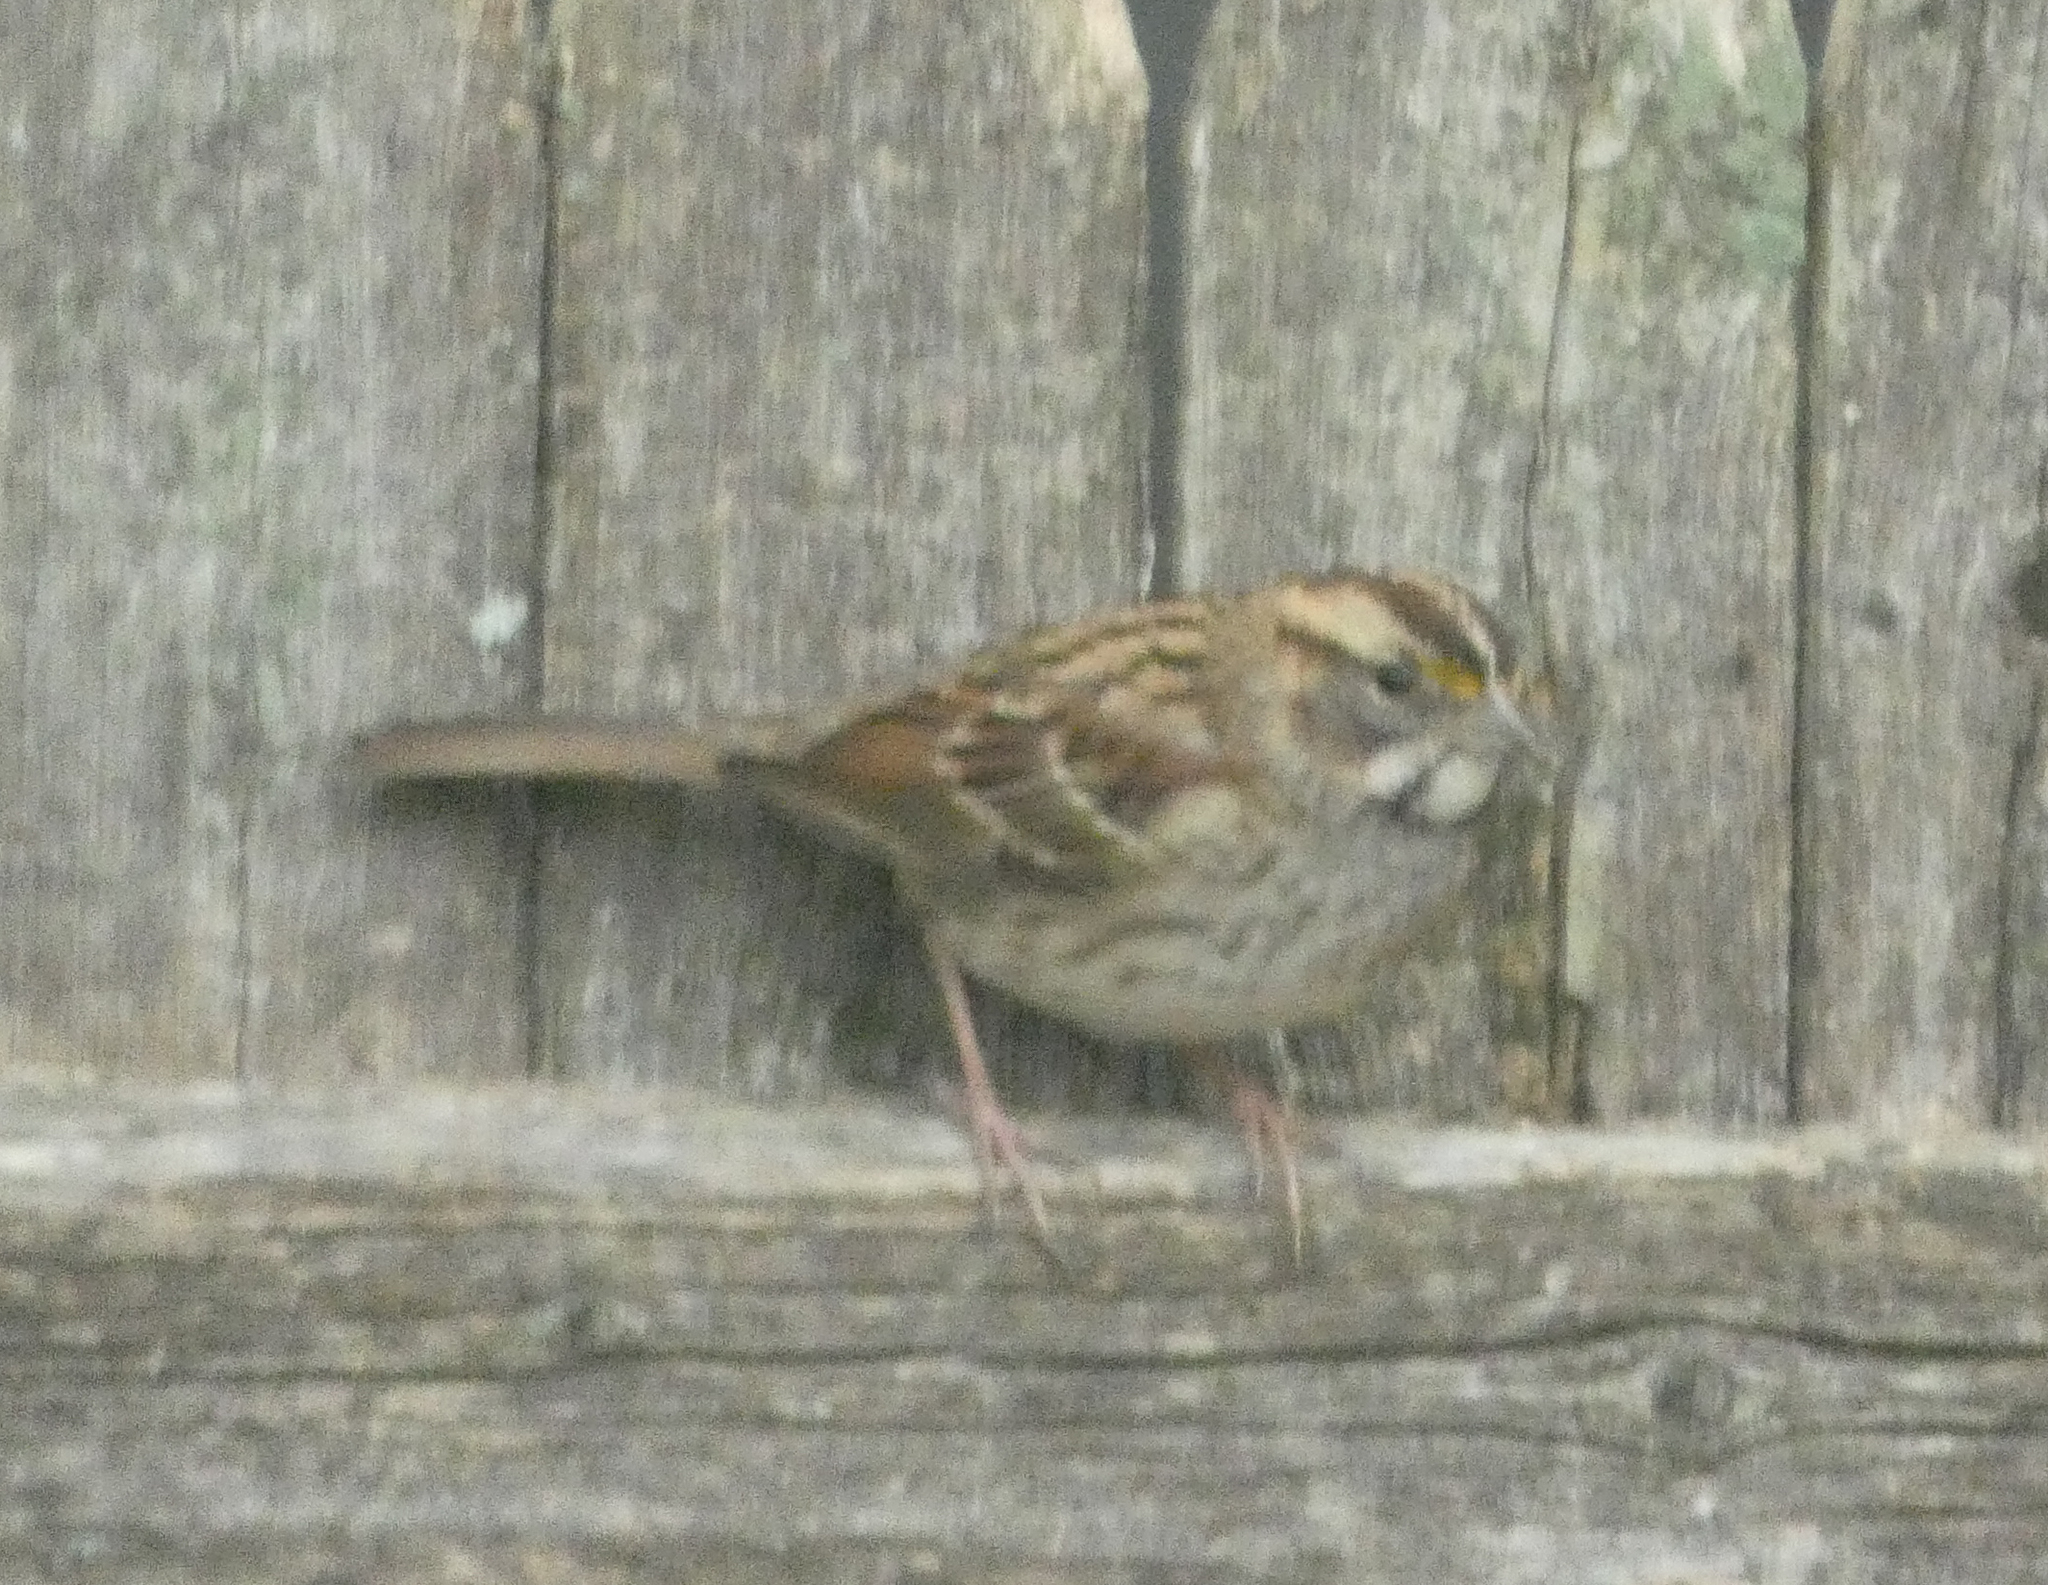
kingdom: Animalia
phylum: Chordata
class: Aves
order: Passeriformes
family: Passerellidae
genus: Zonotrichia
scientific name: Zonotrichia albicollis
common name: White-throated sparrow
